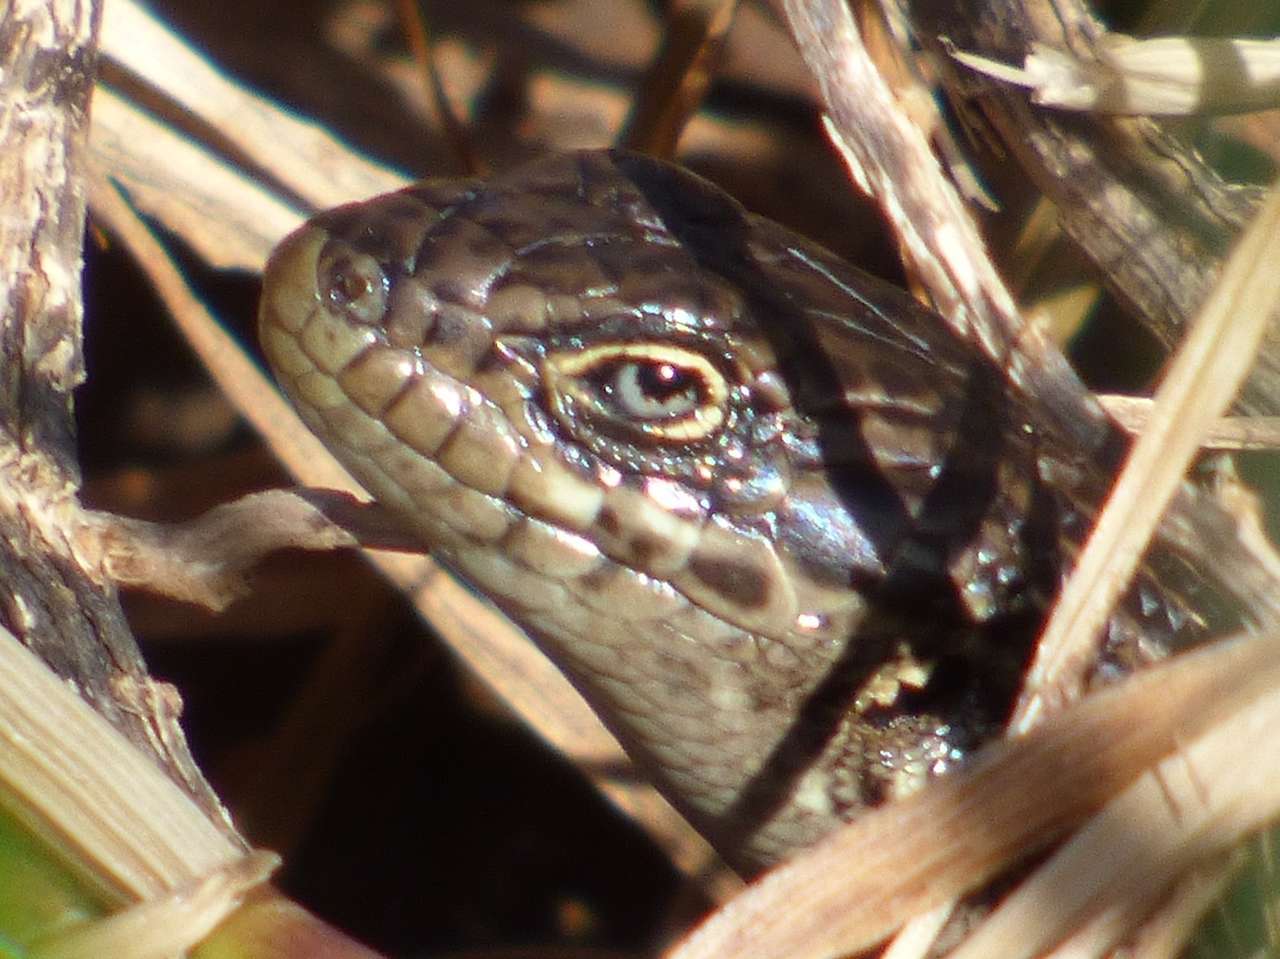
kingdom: Animalia
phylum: Chordata
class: Squamata
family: Scincidae
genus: Liopholis
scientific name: Liopholis whitii
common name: White's rock-skink
